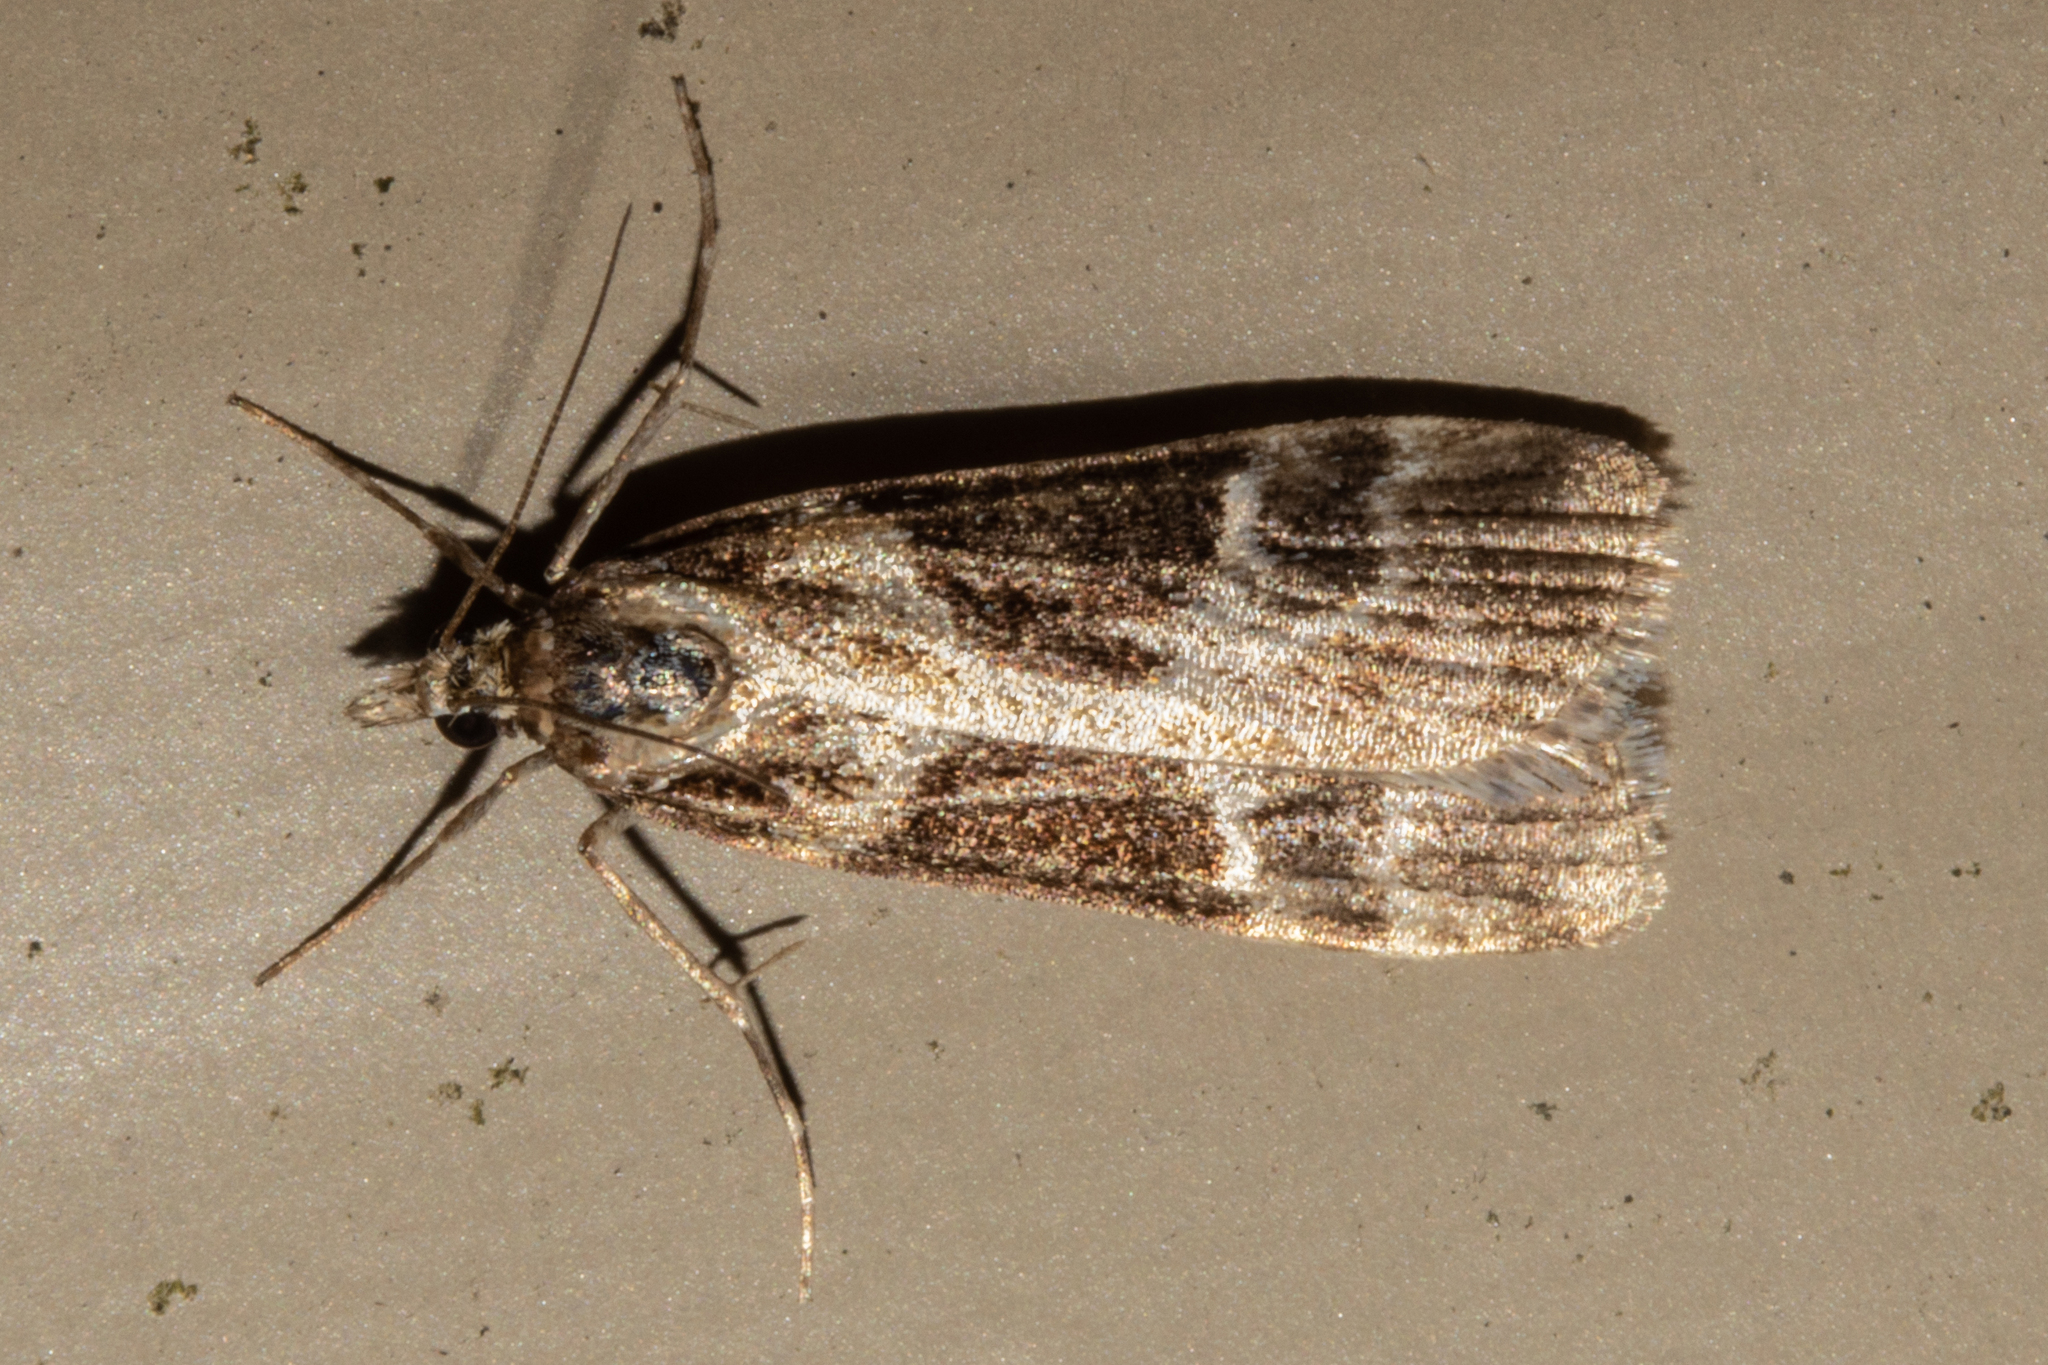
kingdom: Animalia
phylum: Arthropoda
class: Insecta
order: Lepidoptera
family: Crambidae
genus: Eudonia
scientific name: Eudonia melanaegis
